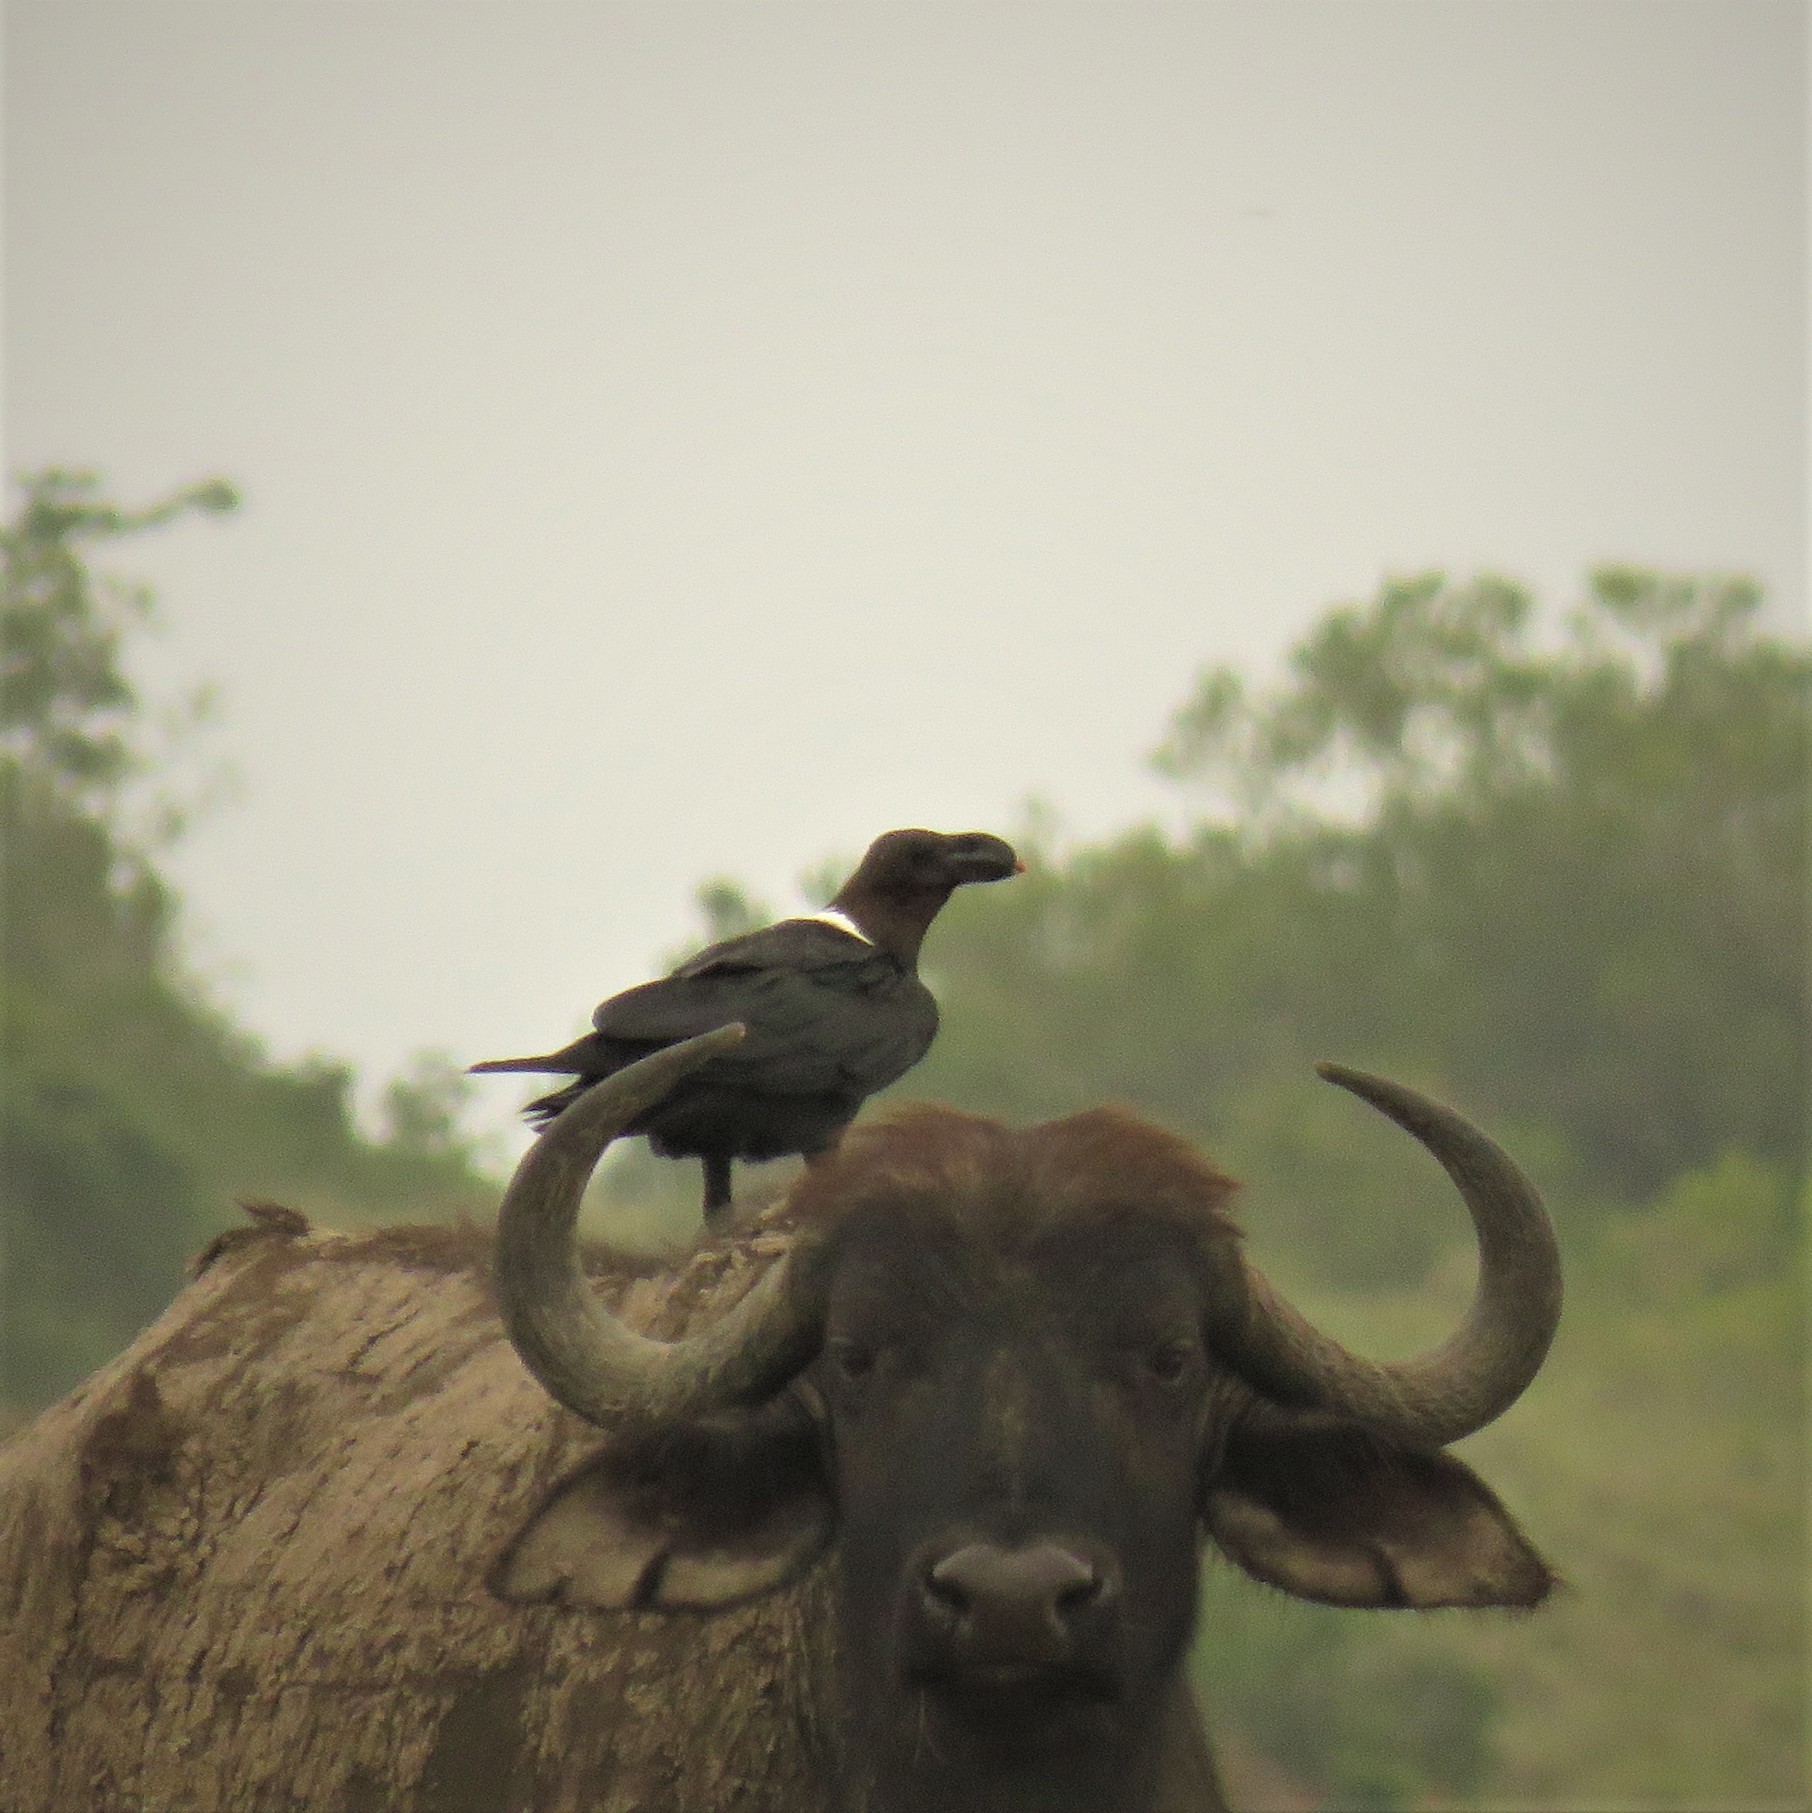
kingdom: Animalia
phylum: Chordata
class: Aves
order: Passeriformes
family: Corvidae
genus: Corvus
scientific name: Corvus albicollis
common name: White-necked raven
